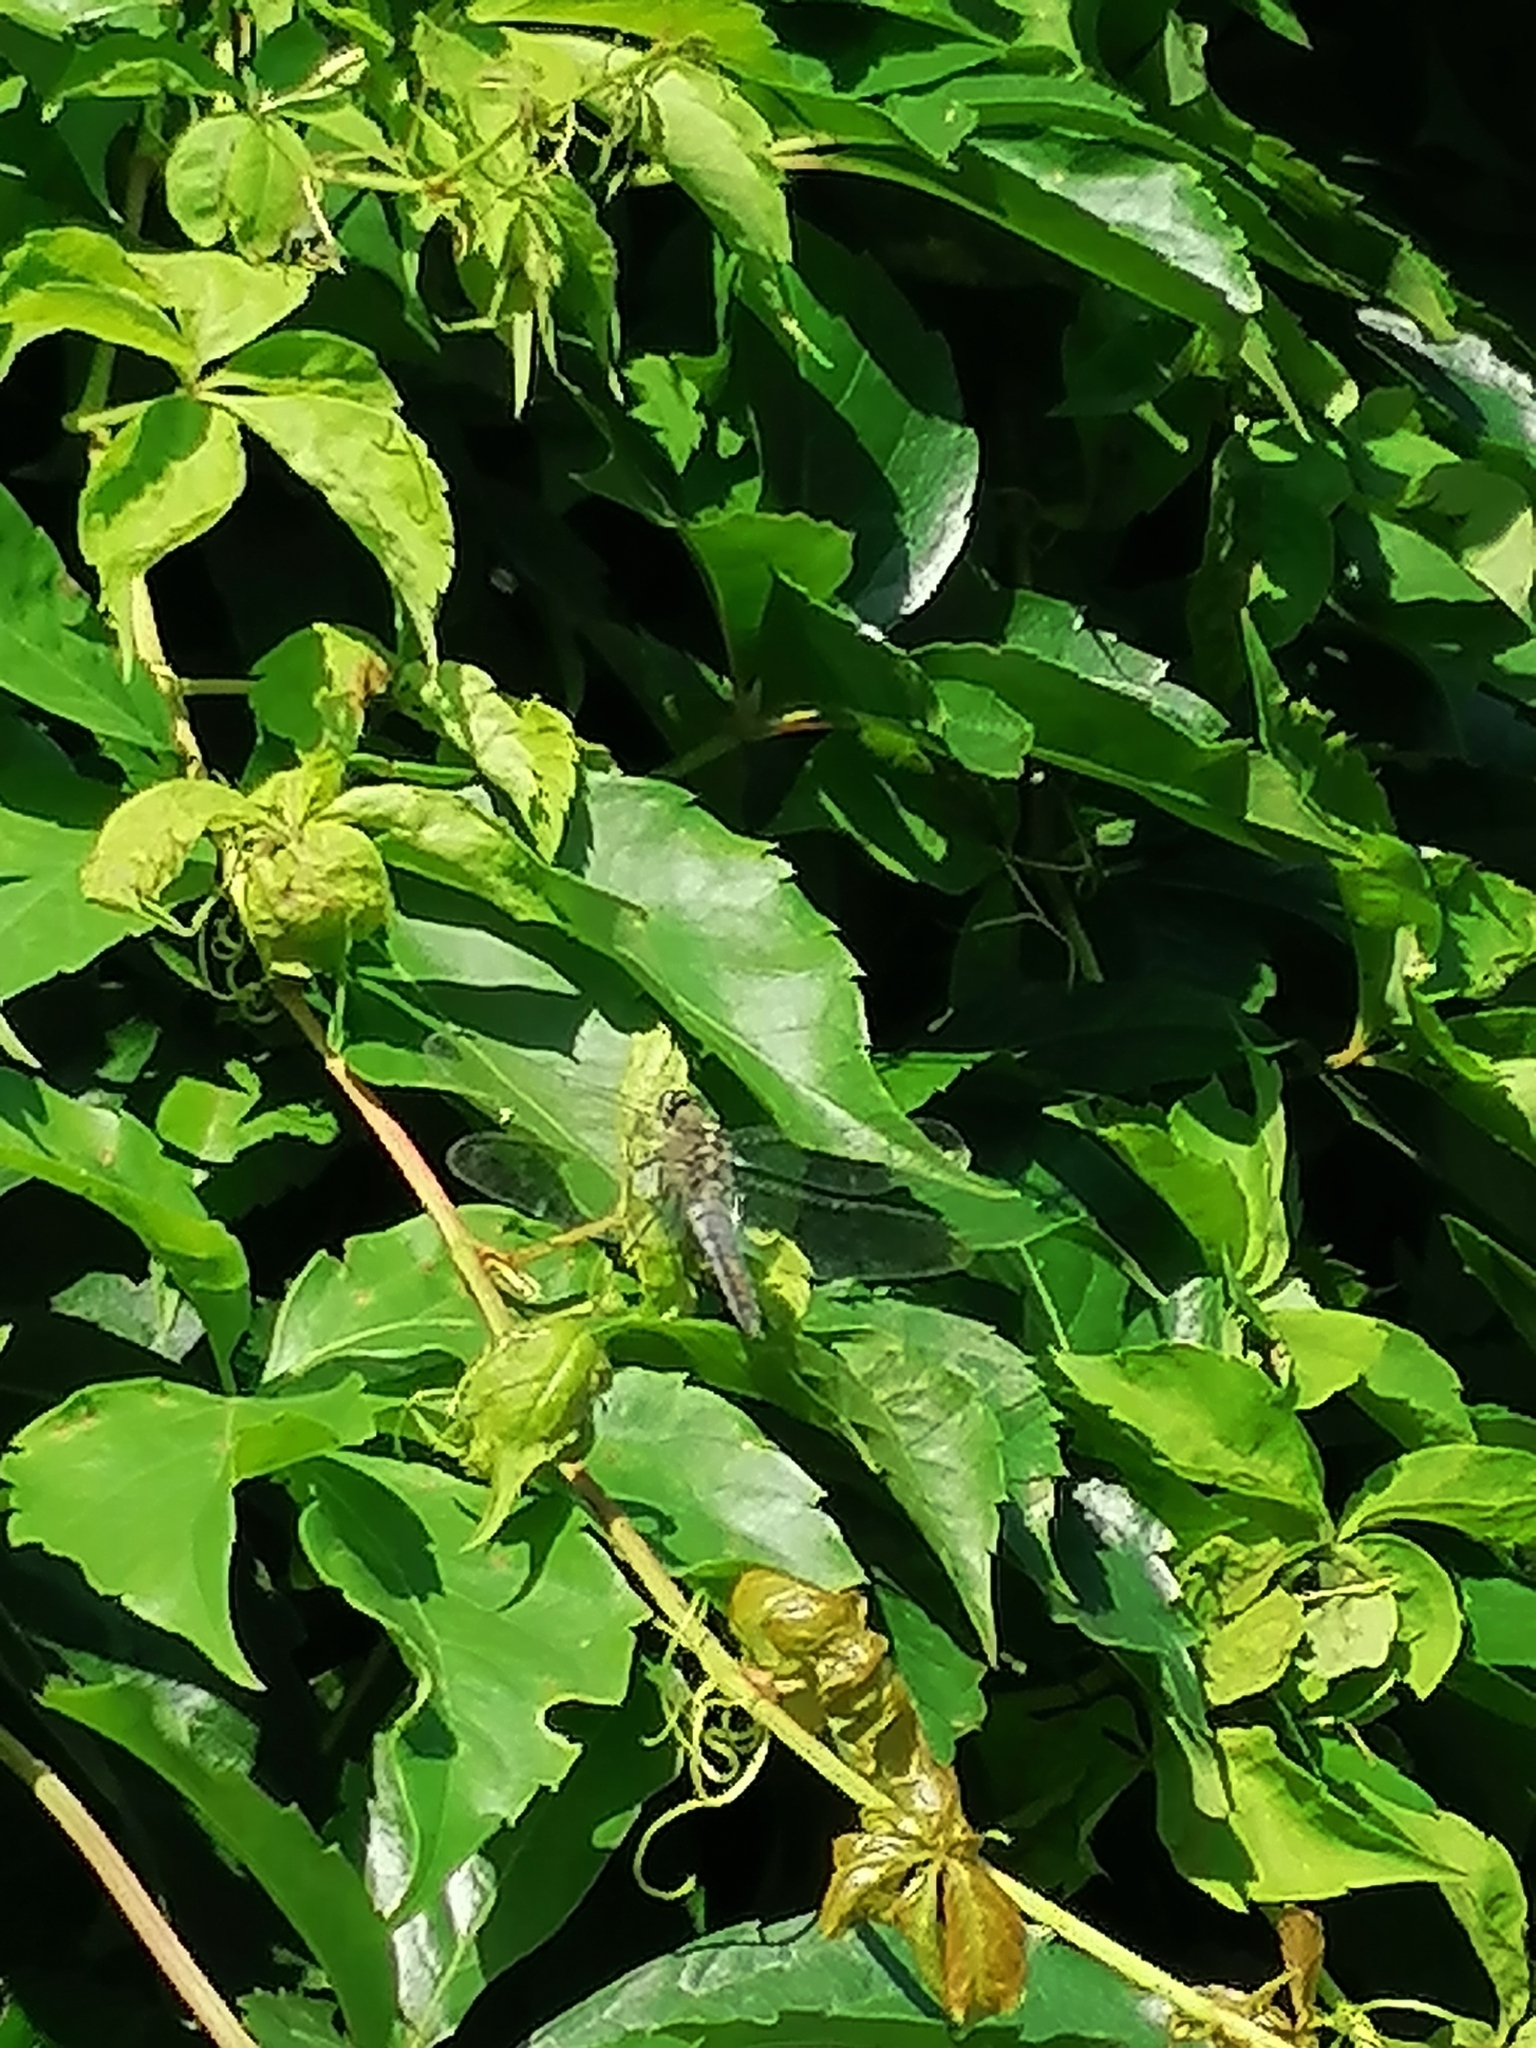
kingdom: Animalia
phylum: Arthropoda
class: Insecta
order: Odonata
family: Libellulidae
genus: Orthetrum
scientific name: Orthetrum cancellatum
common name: Black-tailed skimmer
